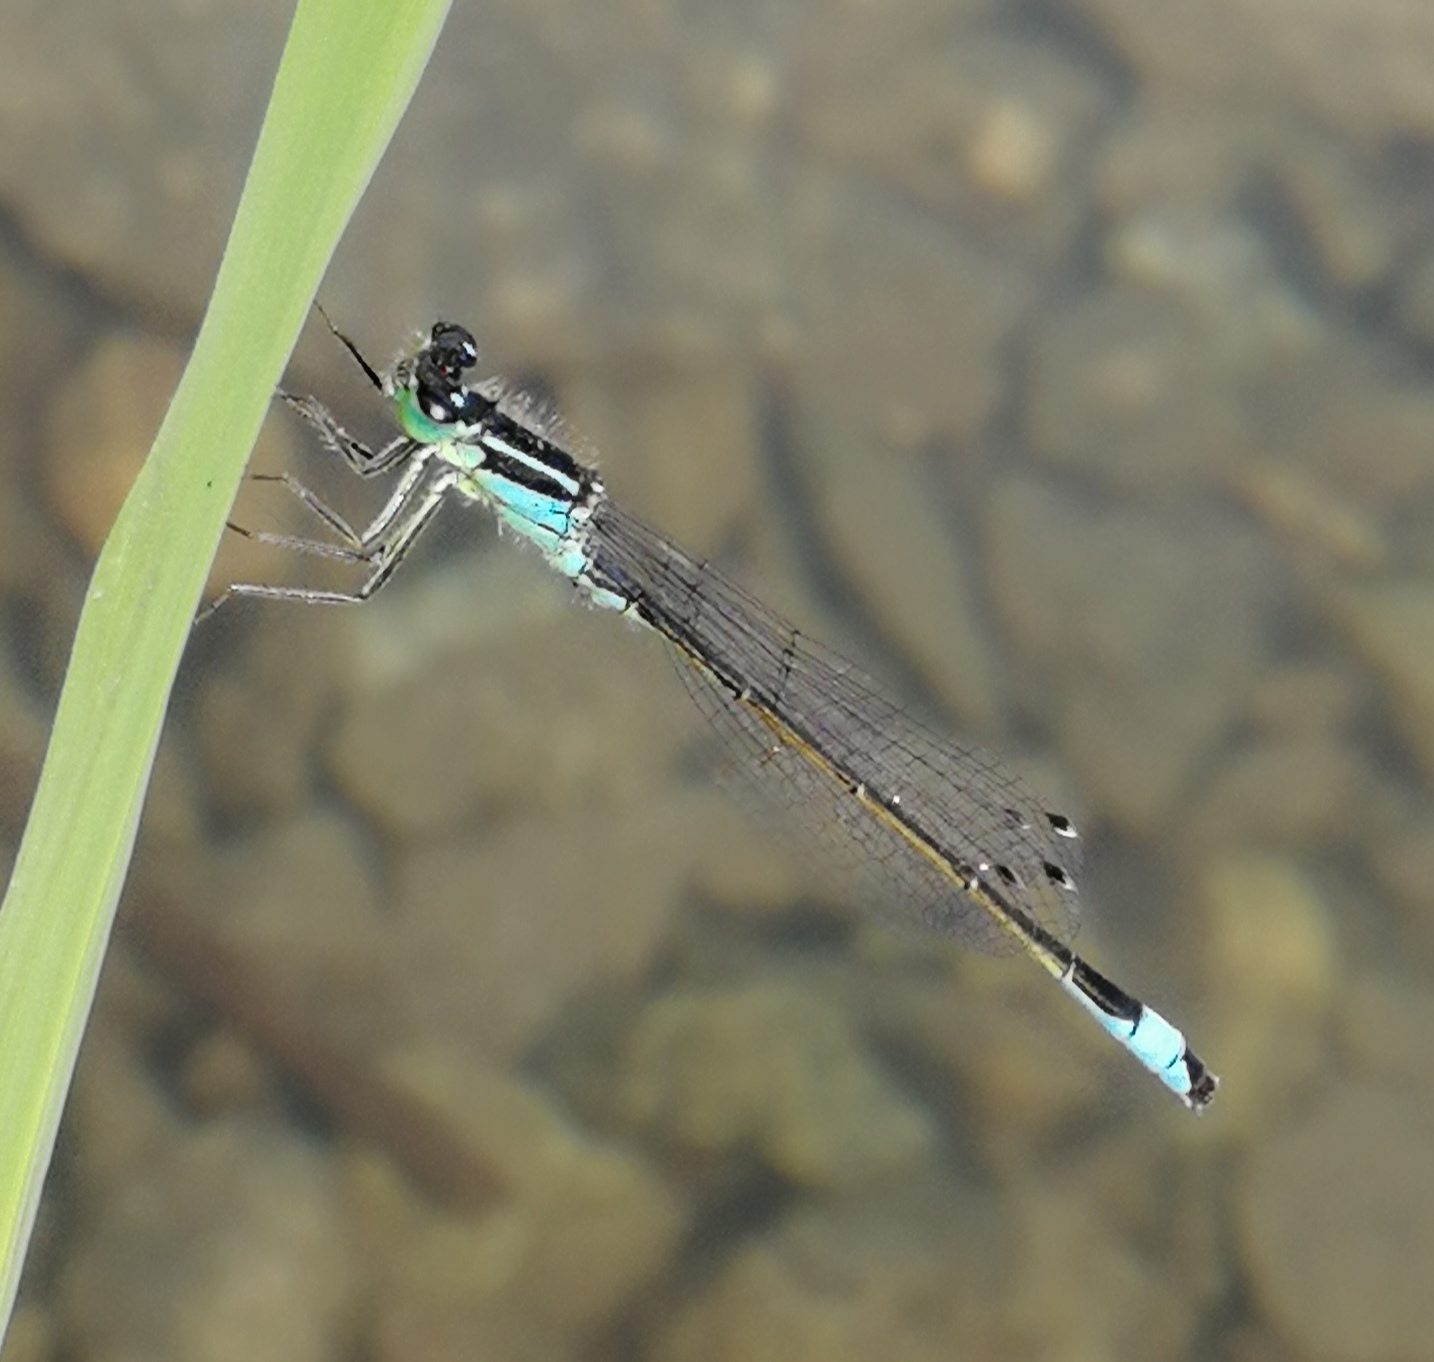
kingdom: Animalia
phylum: Arthropoda
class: Insecta
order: Odonata
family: Coenagrionidae
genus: Ischnura
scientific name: Ischnura elegans
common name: Blue-tailed damselfly
